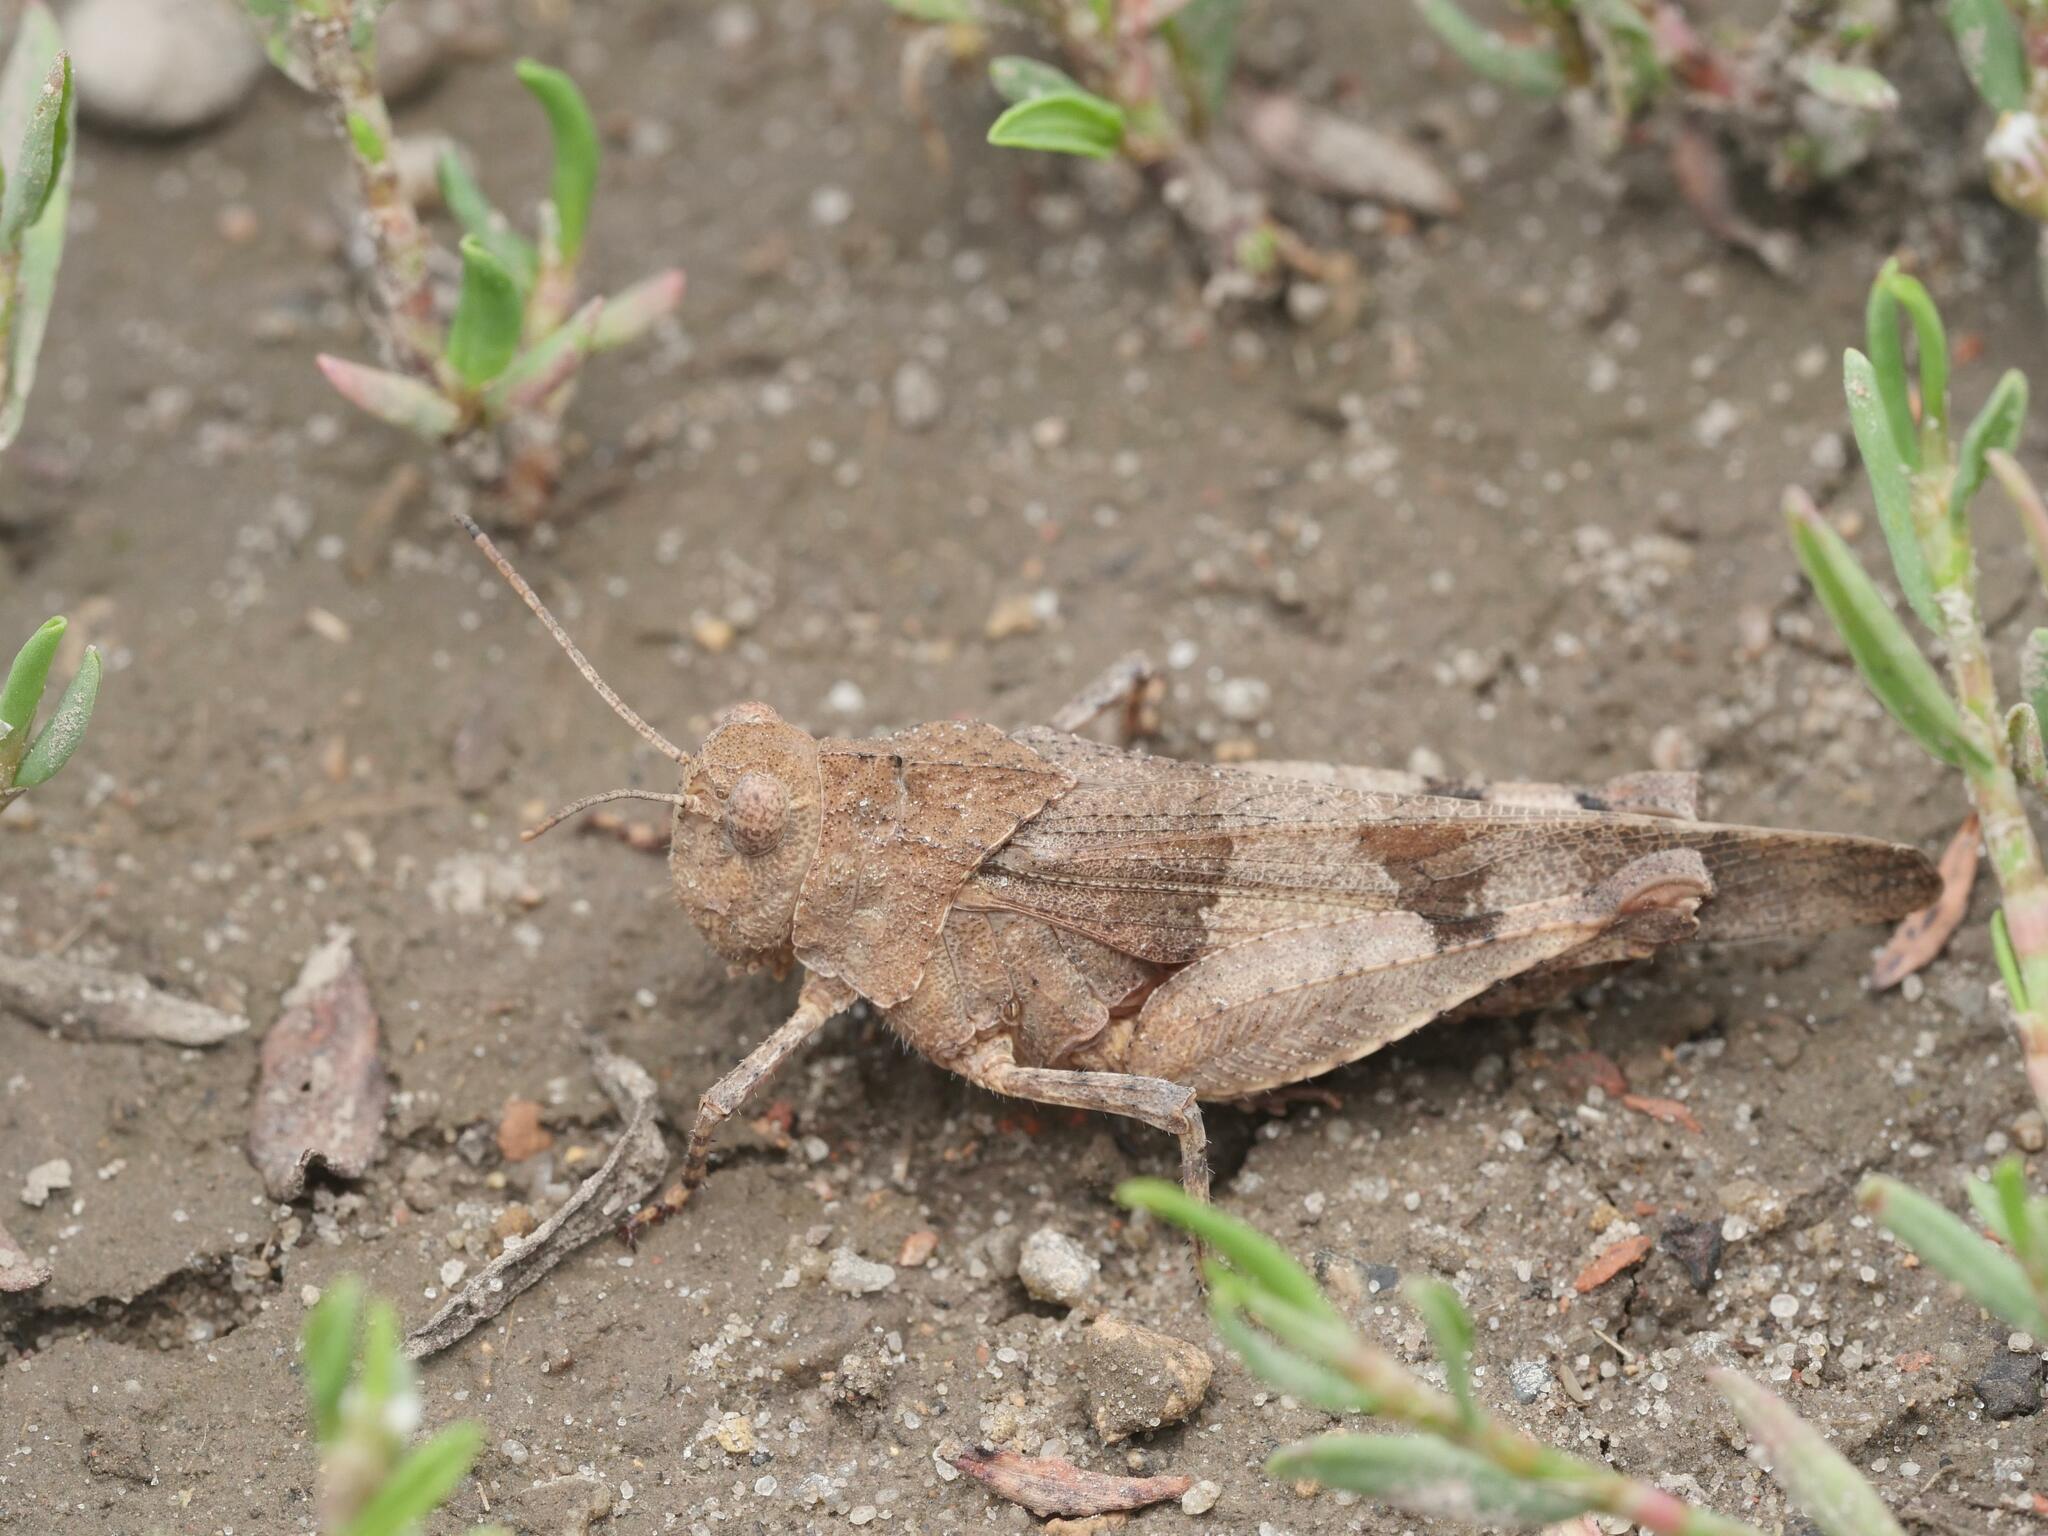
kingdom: Animalia
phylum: Arthropoda
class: Insecta
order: Orthoptera
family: Acrididae
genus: Oedipoda
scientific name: Oedipoda caerulescens
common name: Blue-winged grasshopper
